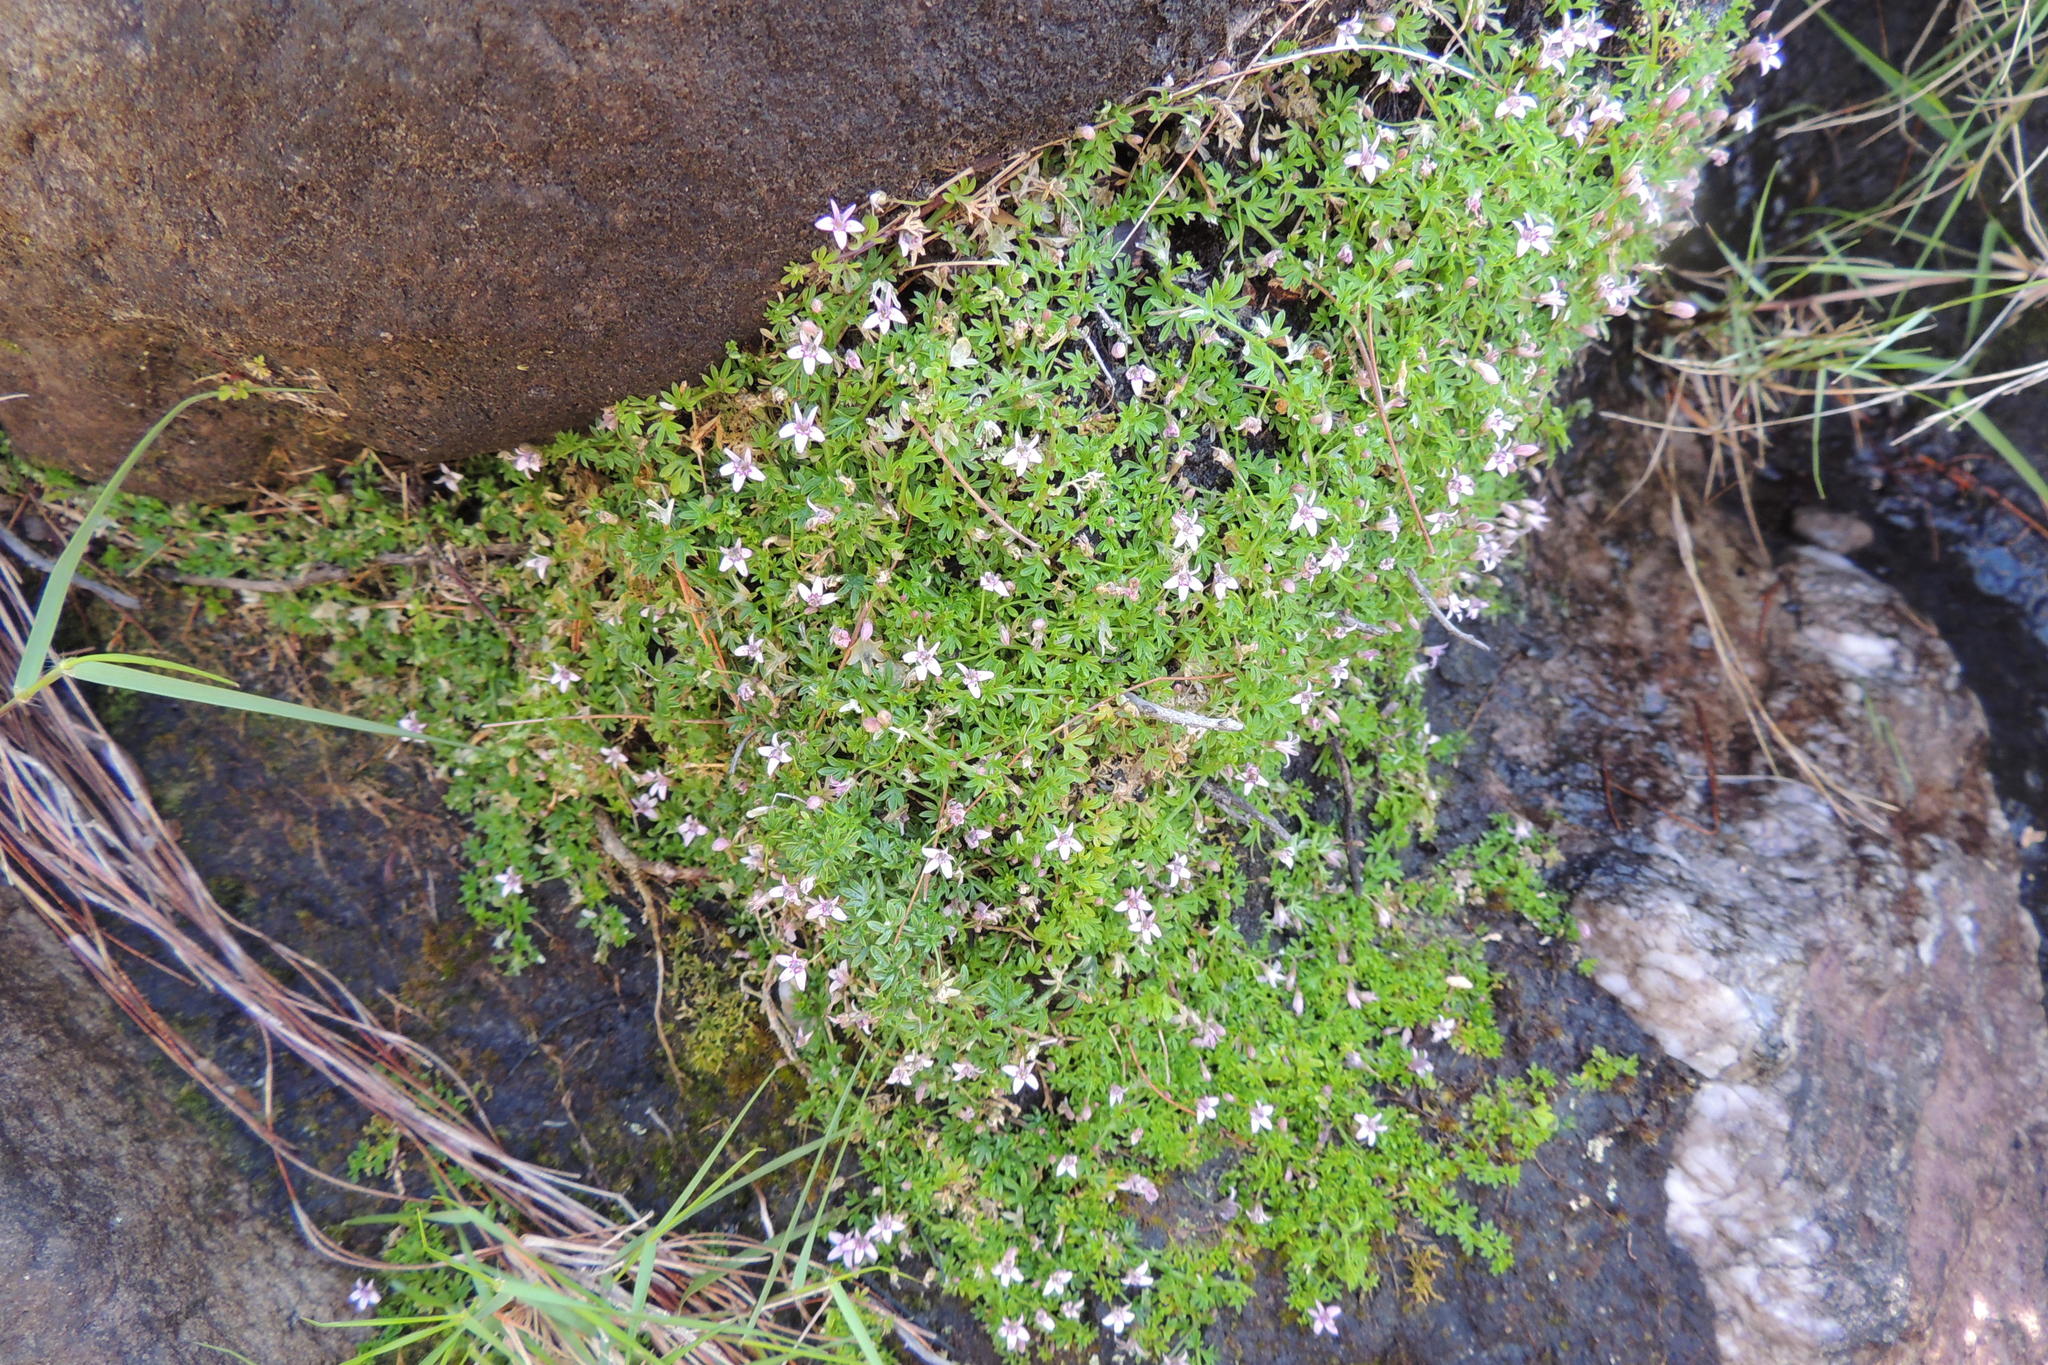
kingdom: Plantae
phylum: Tracheophyta
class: Magnoliopsida
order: Asterales
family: Campanulaceae
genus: Lobelia
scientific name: Lobelia muscoides
